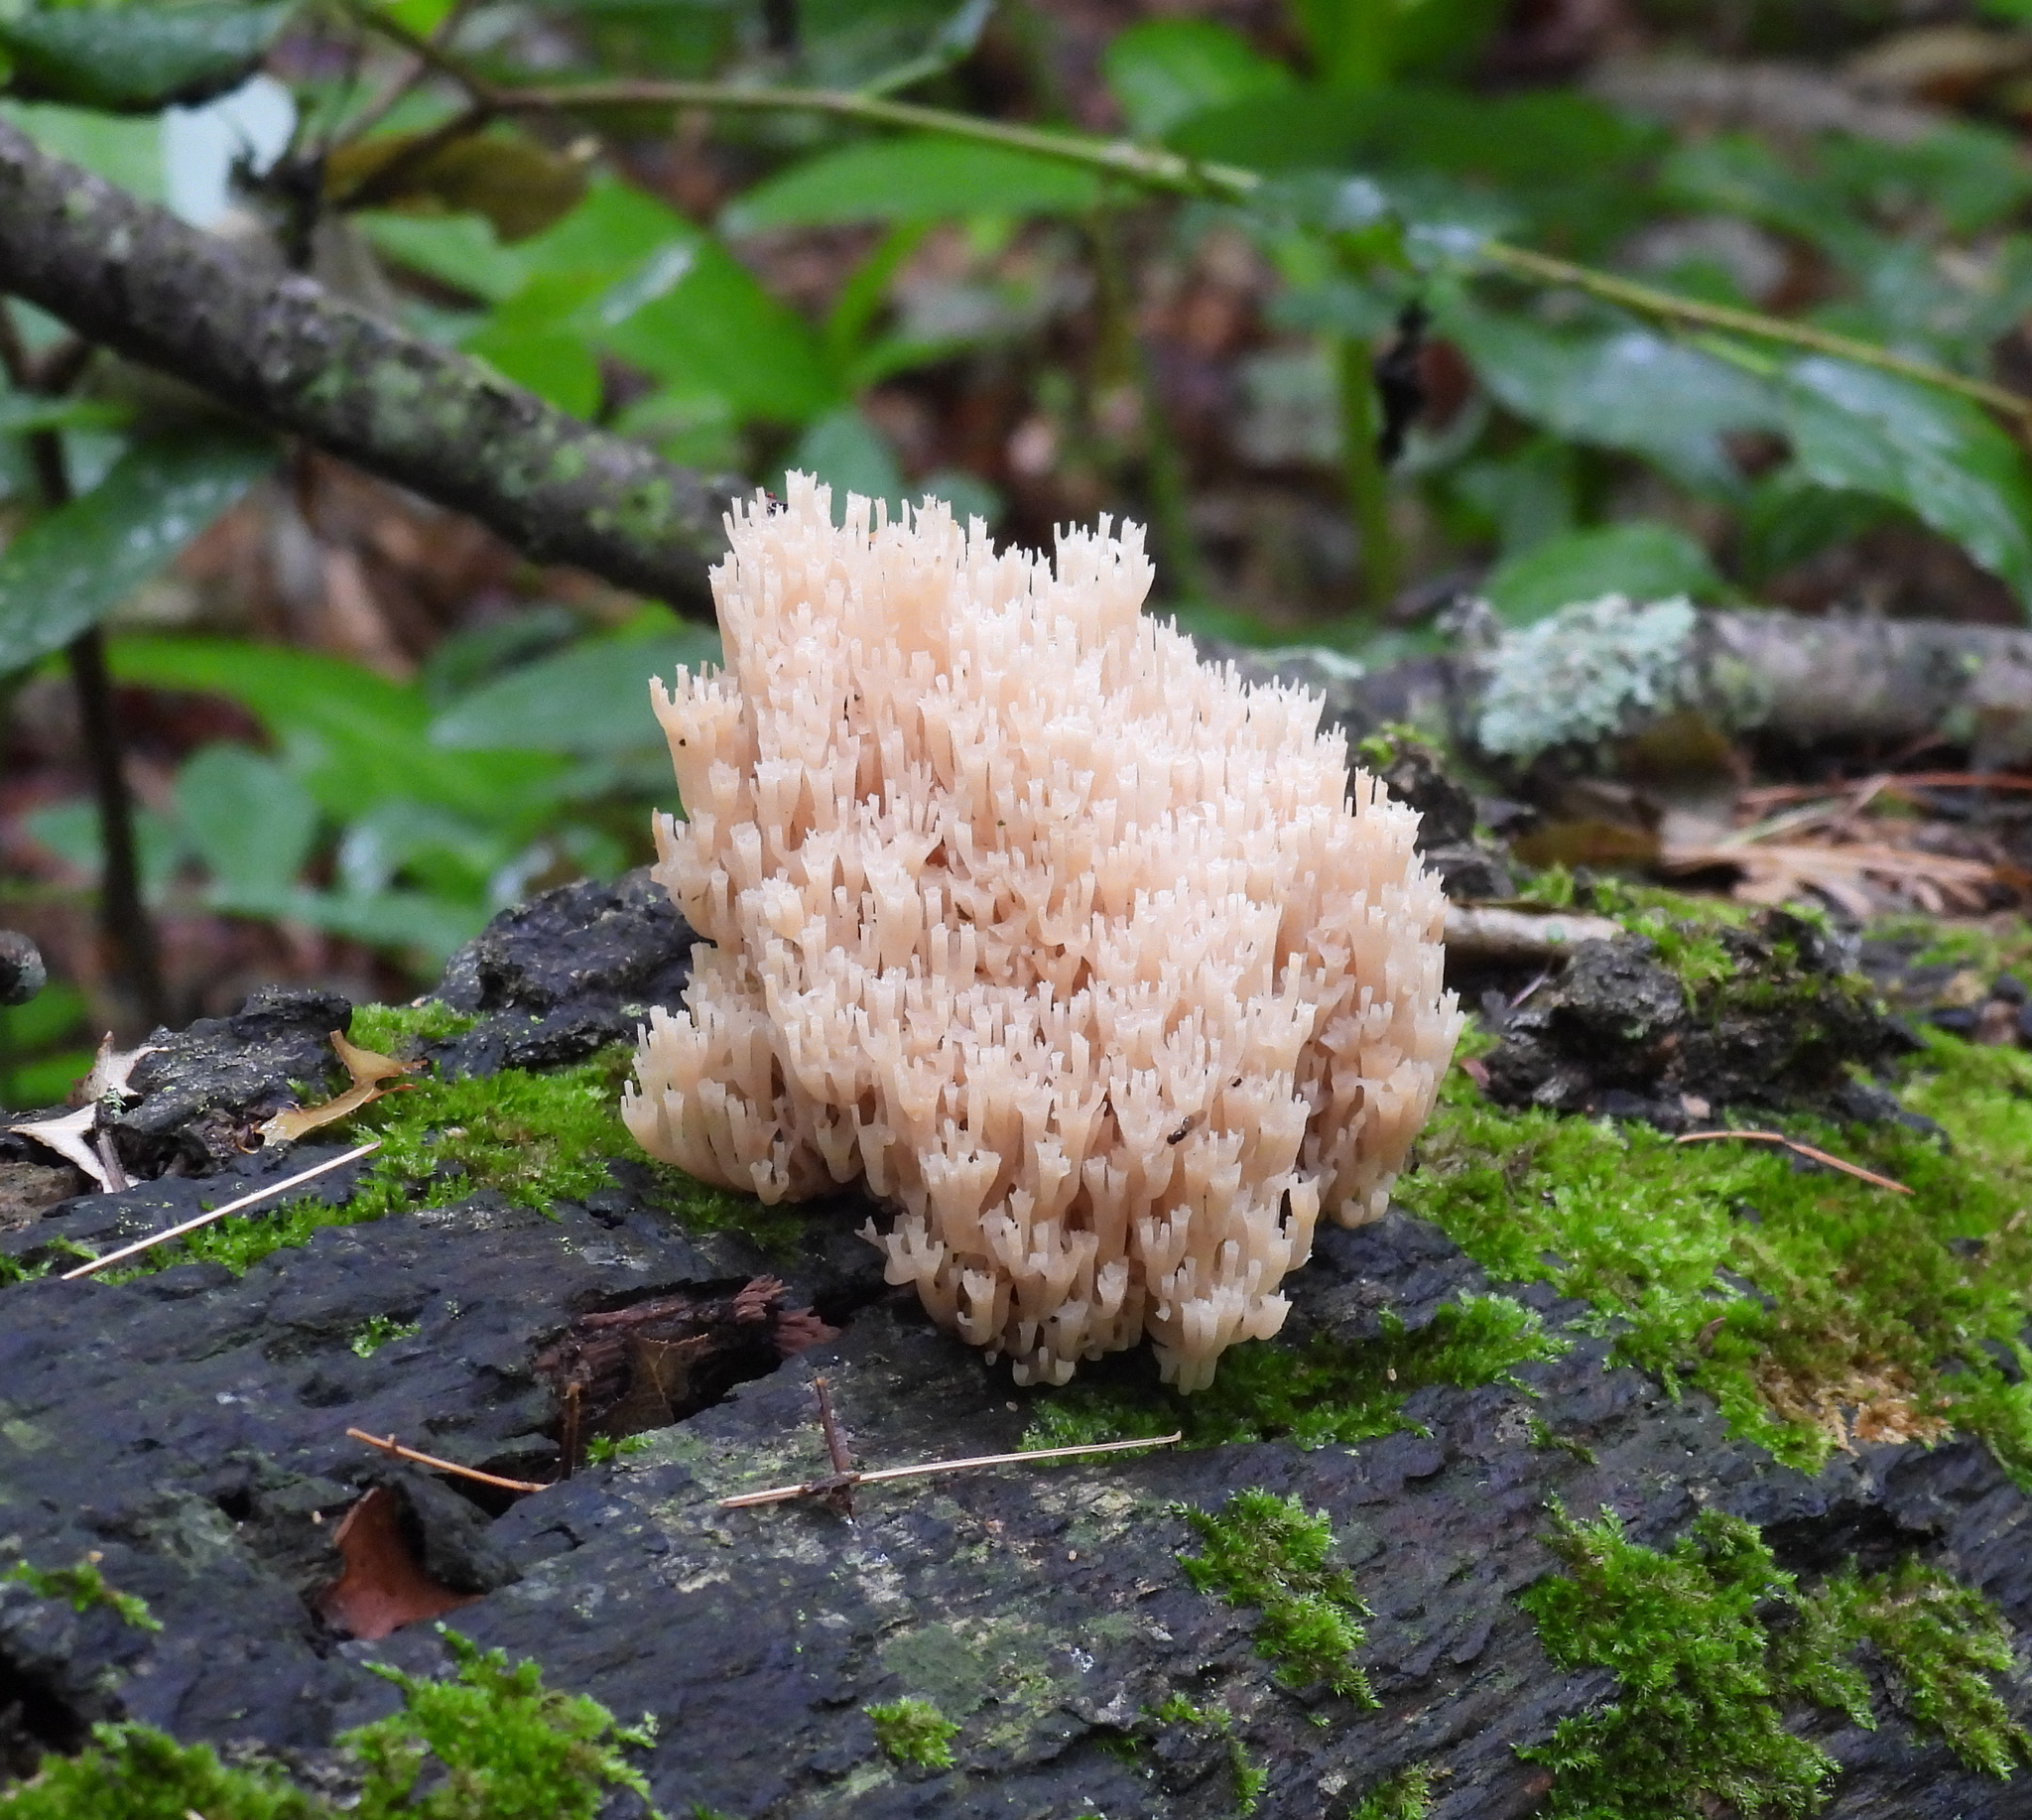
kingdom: Fungi
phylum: Basidiomycota
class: Agaricomycetes
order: Russulales
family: Auriscalpiaceae
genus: Artomyces
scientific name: Artomyces pyxidatus
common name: Crown-tipped coral fungus
